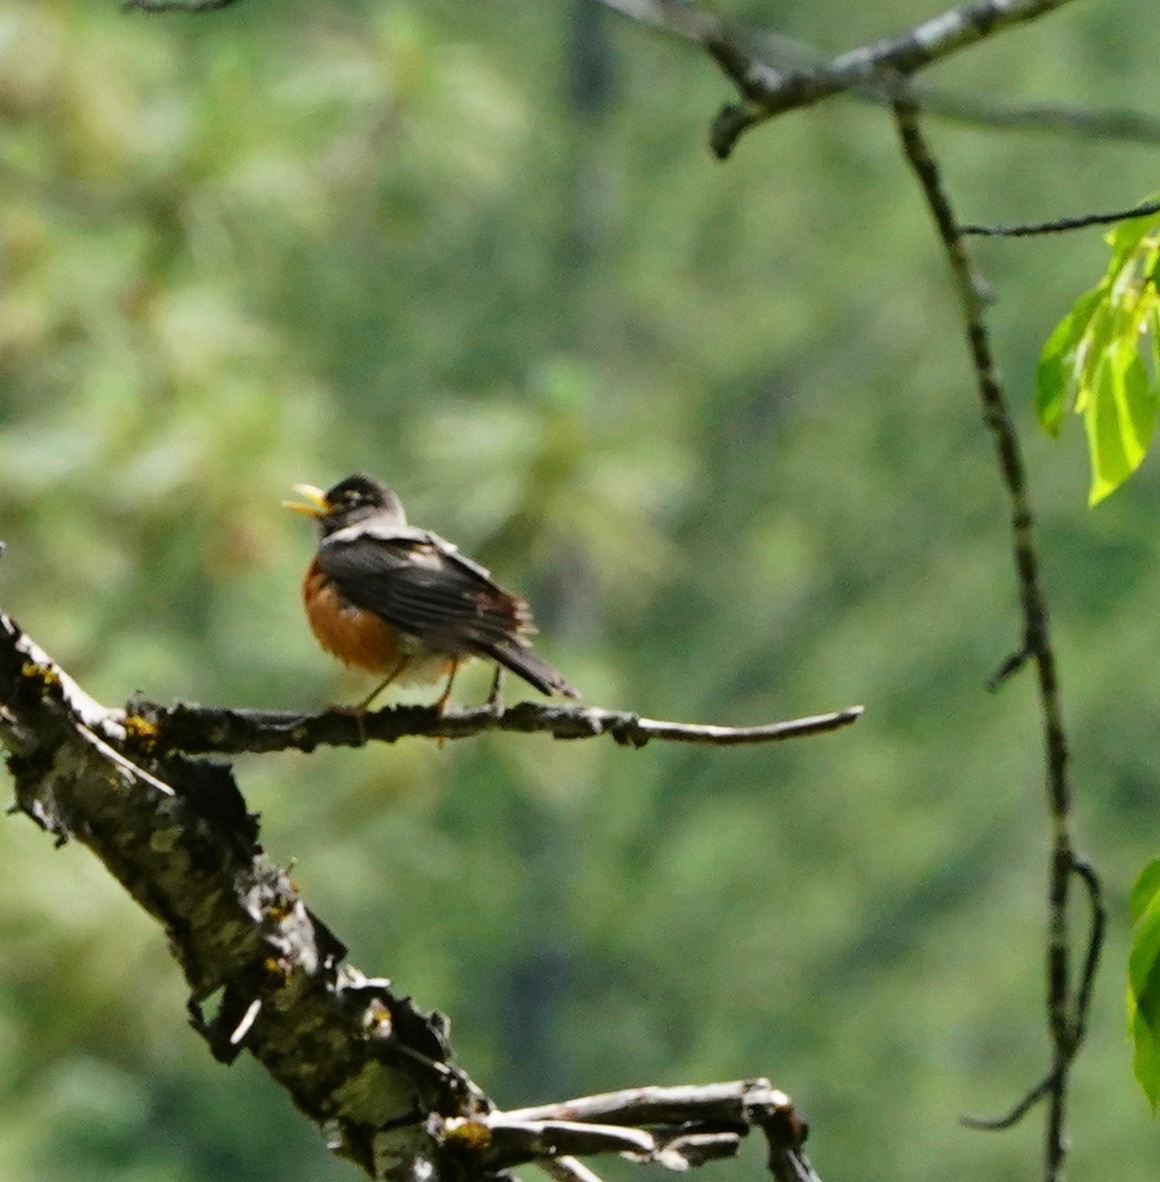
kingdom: Animalia
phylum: Chordata
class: Aves
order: Passeriformes
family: Turdidae
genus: Turdus
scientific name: Turdus migratorius
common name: American robin
